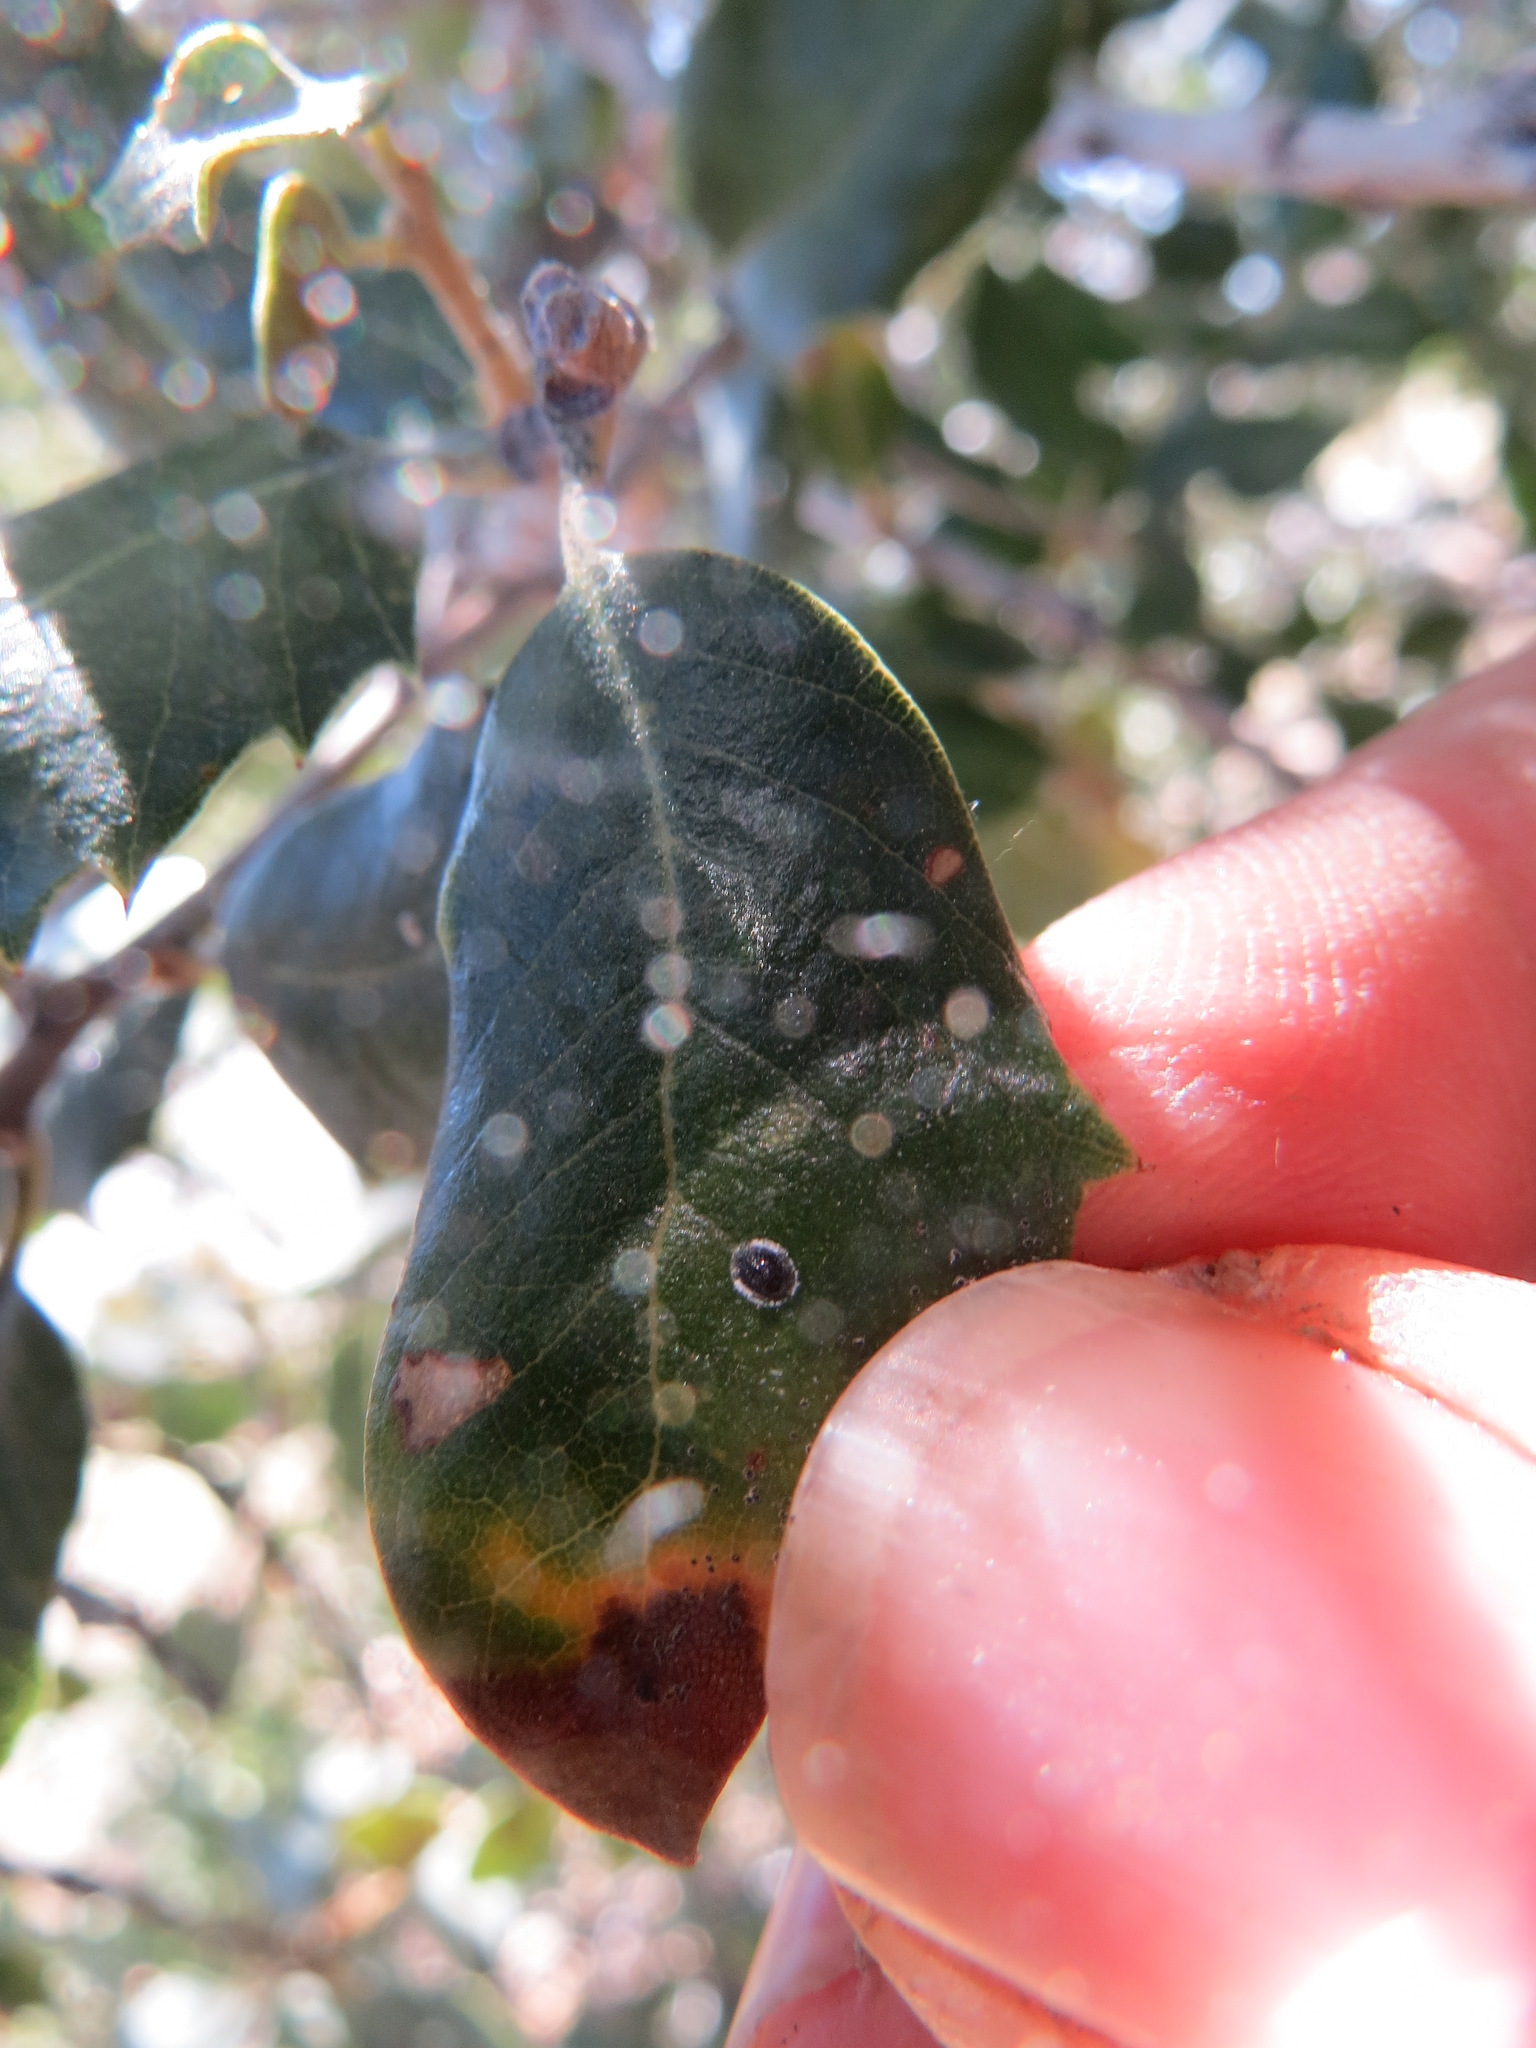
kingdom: Animalia
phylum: Arthropoda
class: Insecta
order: Hemiptera
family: Aleyrodidae
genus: Tetraleurodes
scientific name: Tetraleurodes perileuca
